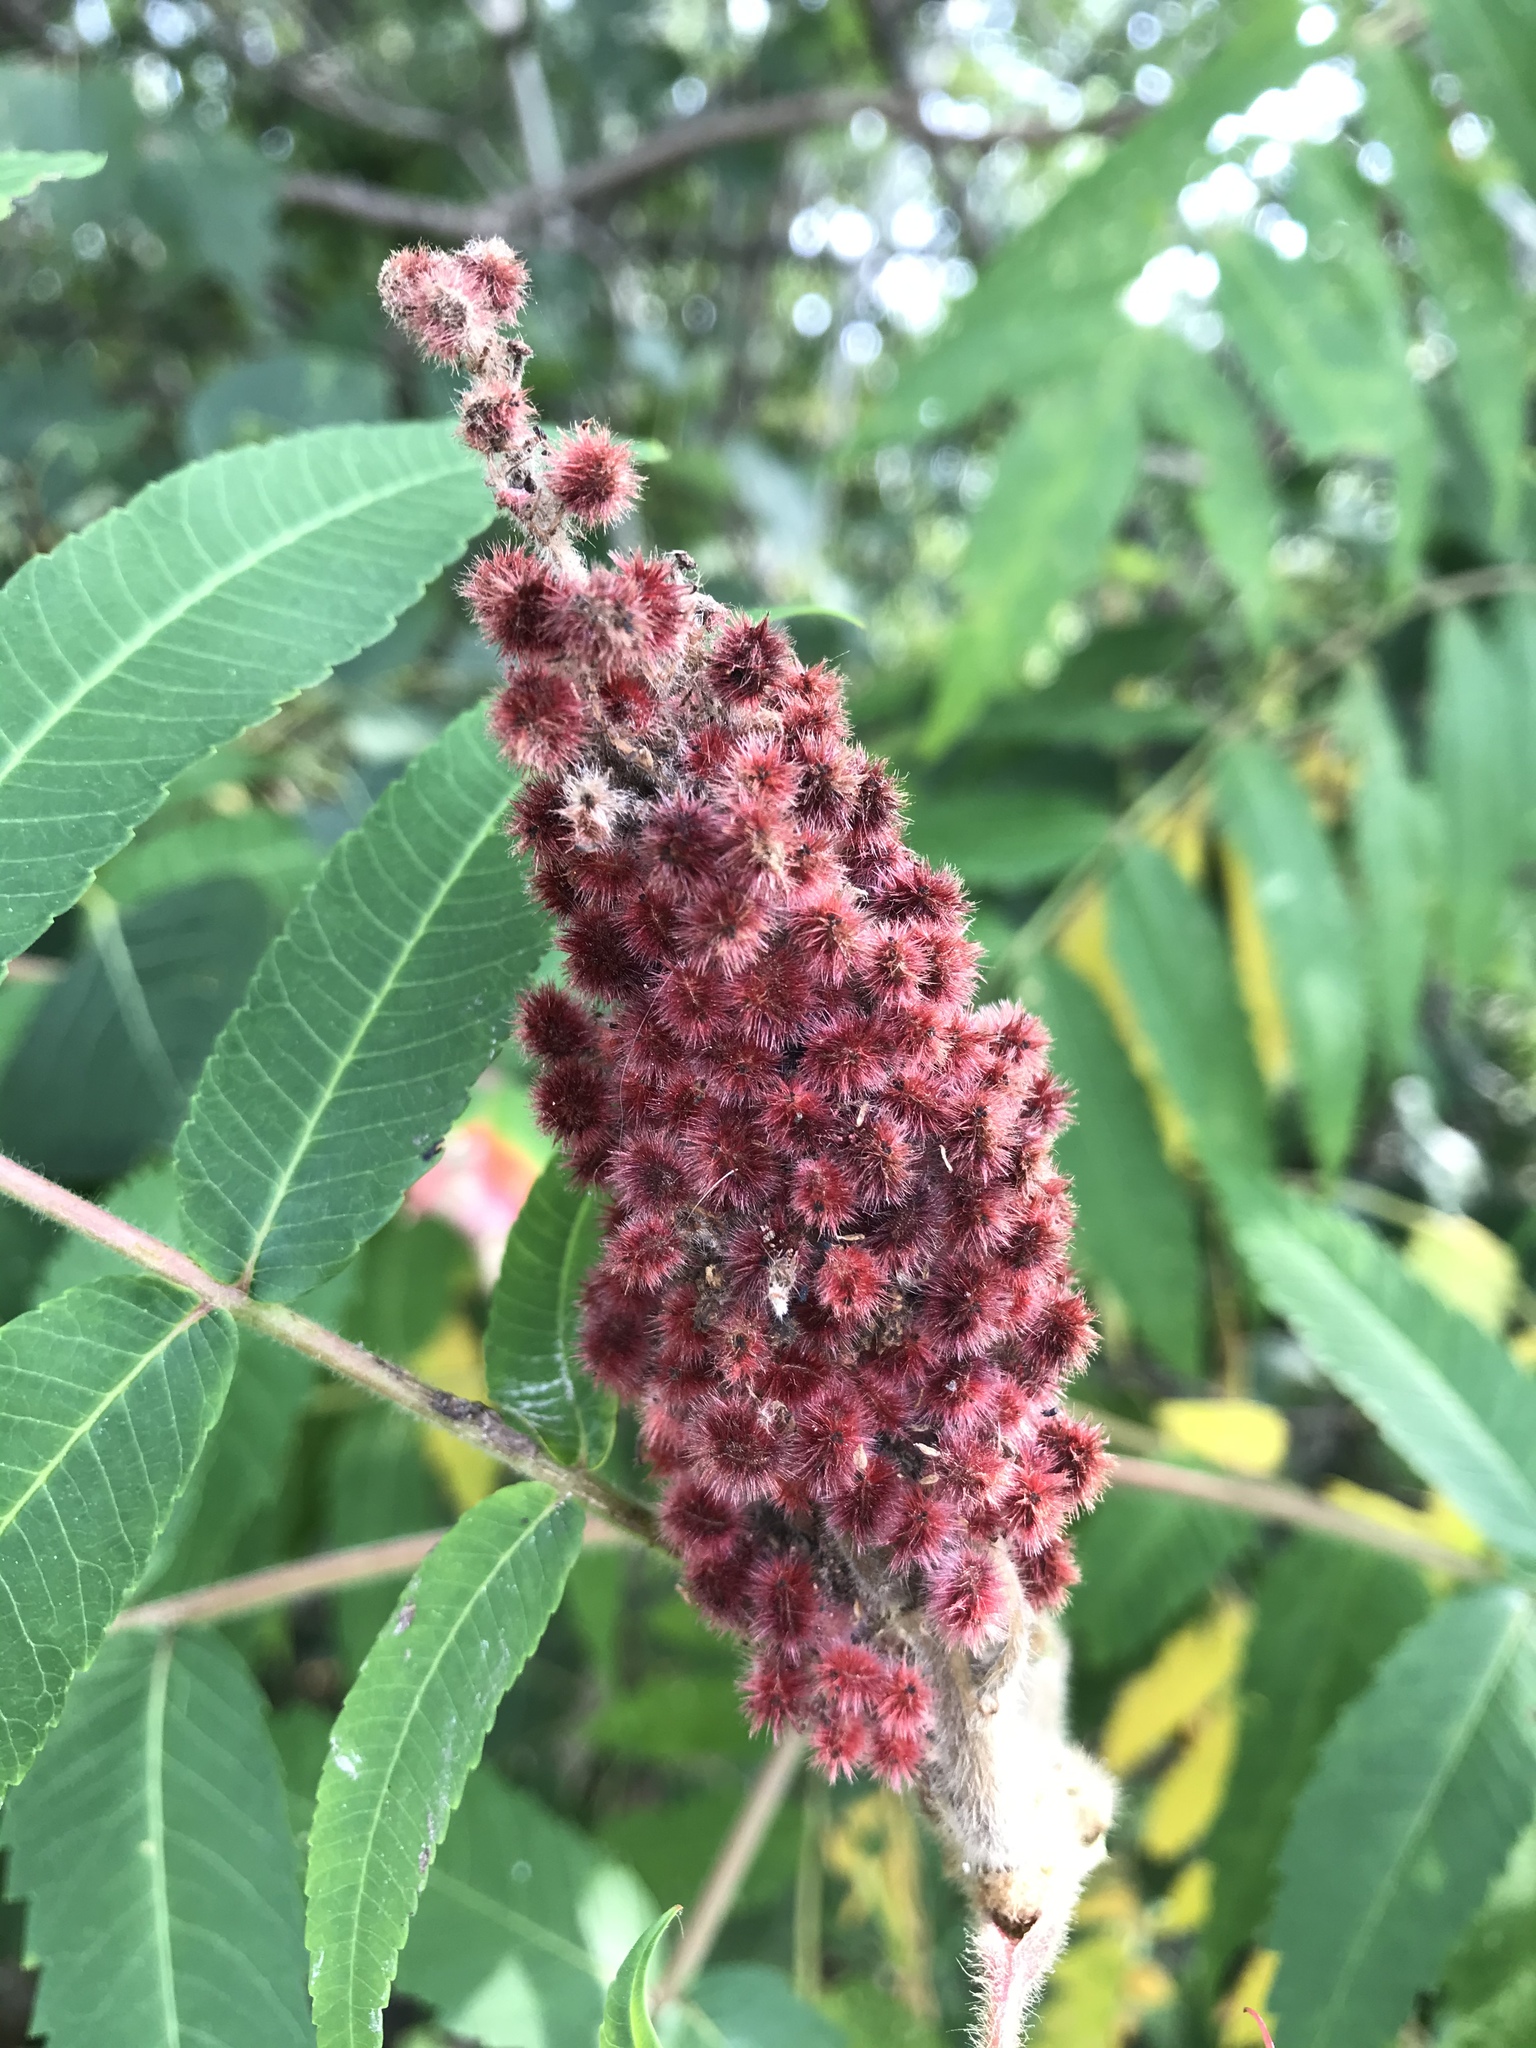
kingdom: Plantae
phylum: Tracheophyta
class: Magnoliopsida
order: Sapindales
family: Anacardiaceae
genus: Rhus
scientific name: Rhus typhina
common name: Staghorn sumac
